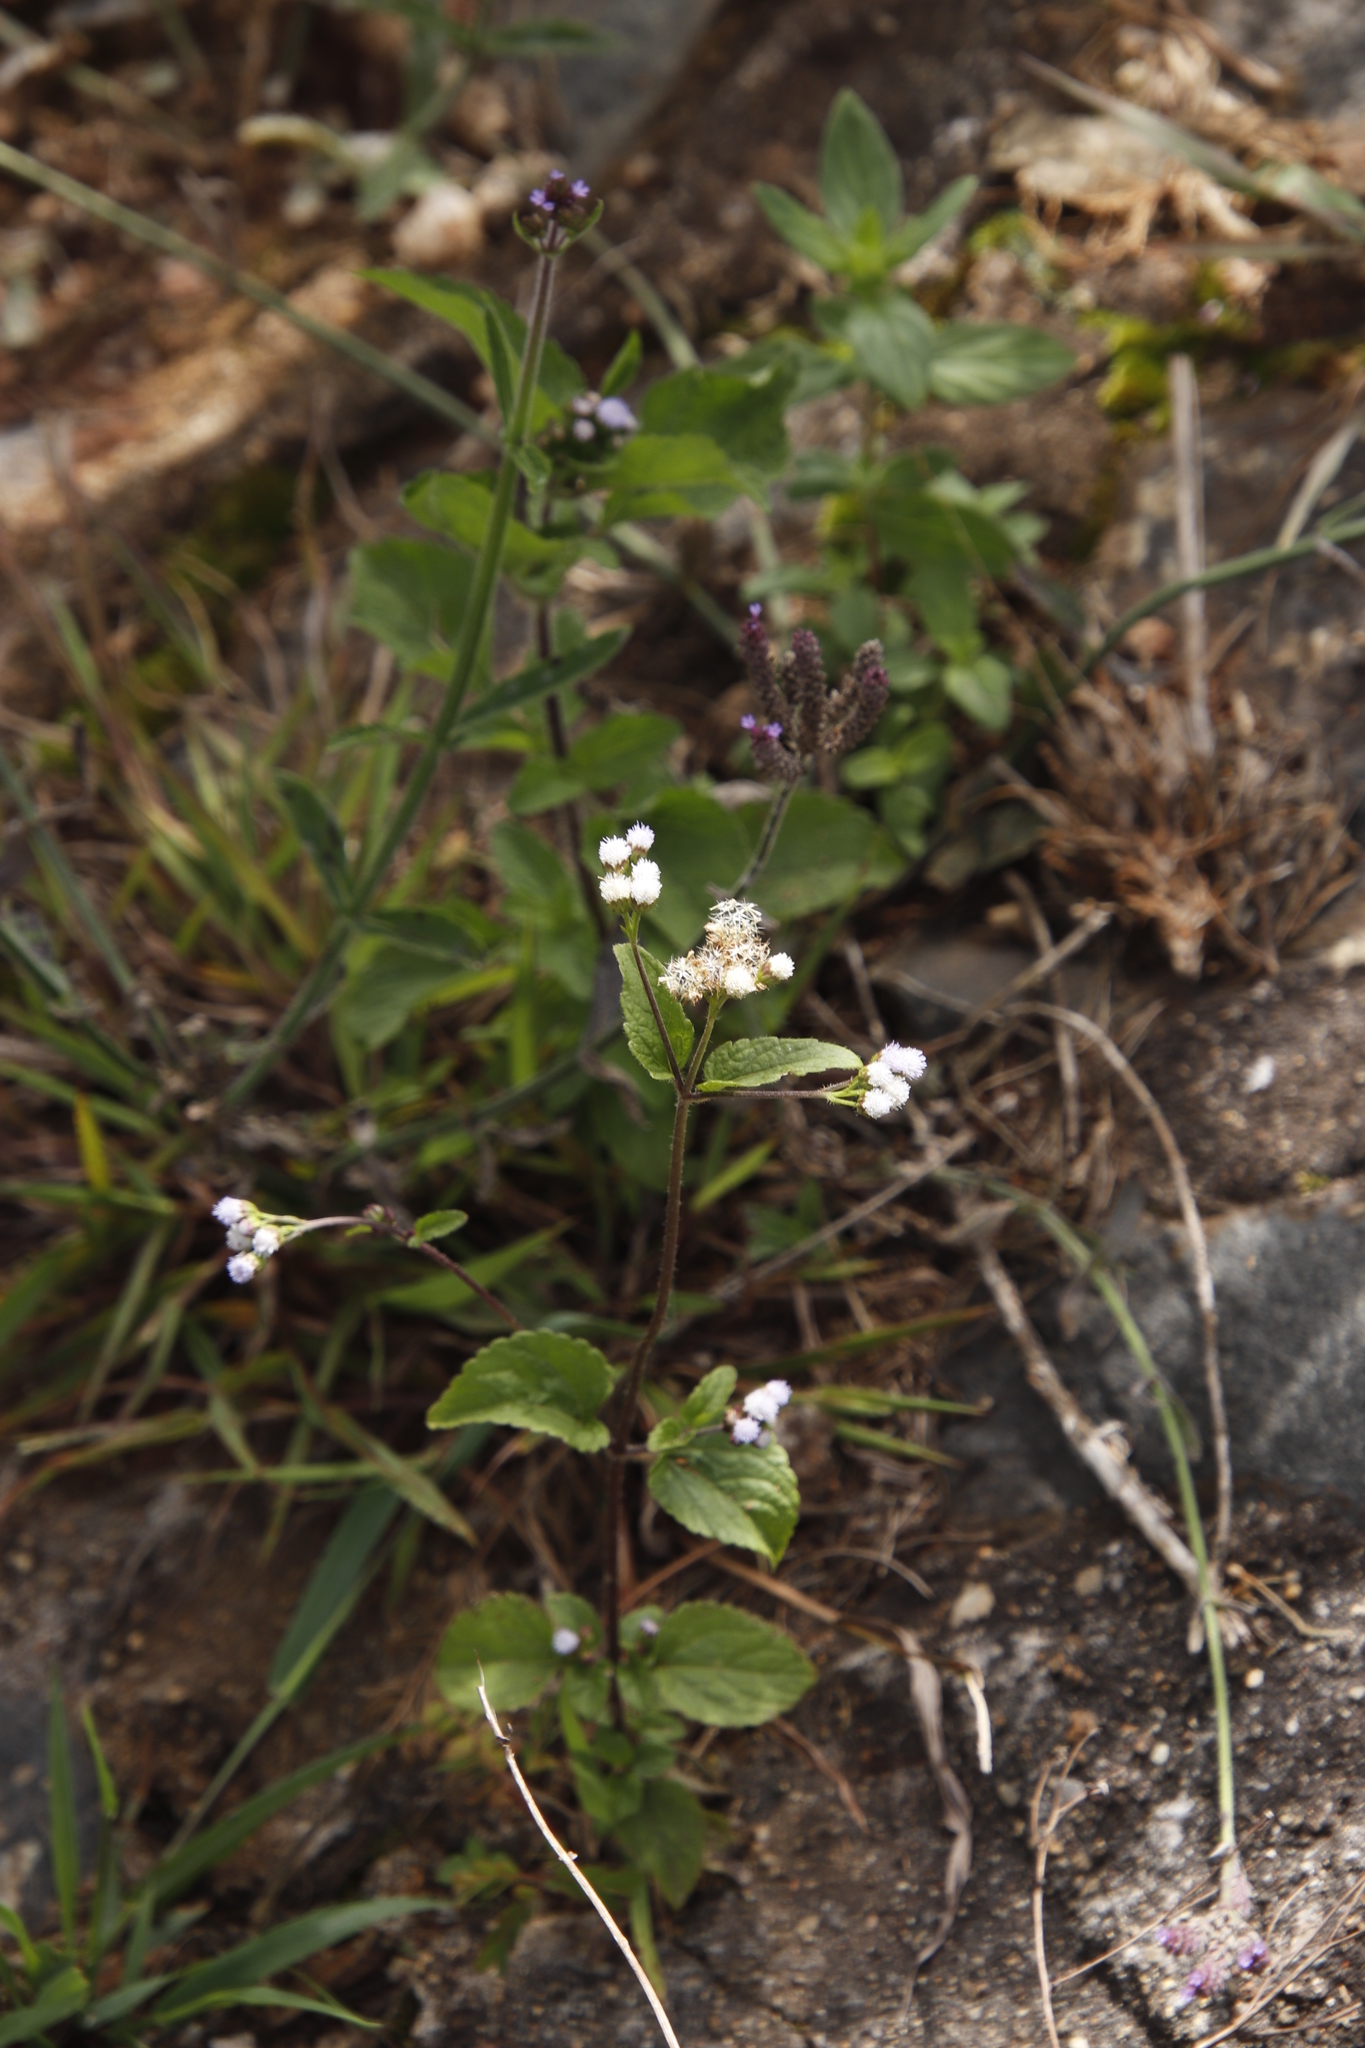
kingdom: Plantae
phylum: Tracheophyta
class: Magnoliopsida
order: Asterales
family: Asteraceae
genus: Ageratum
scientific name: Ageratum conyzoides
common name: Tropical whiteweed
